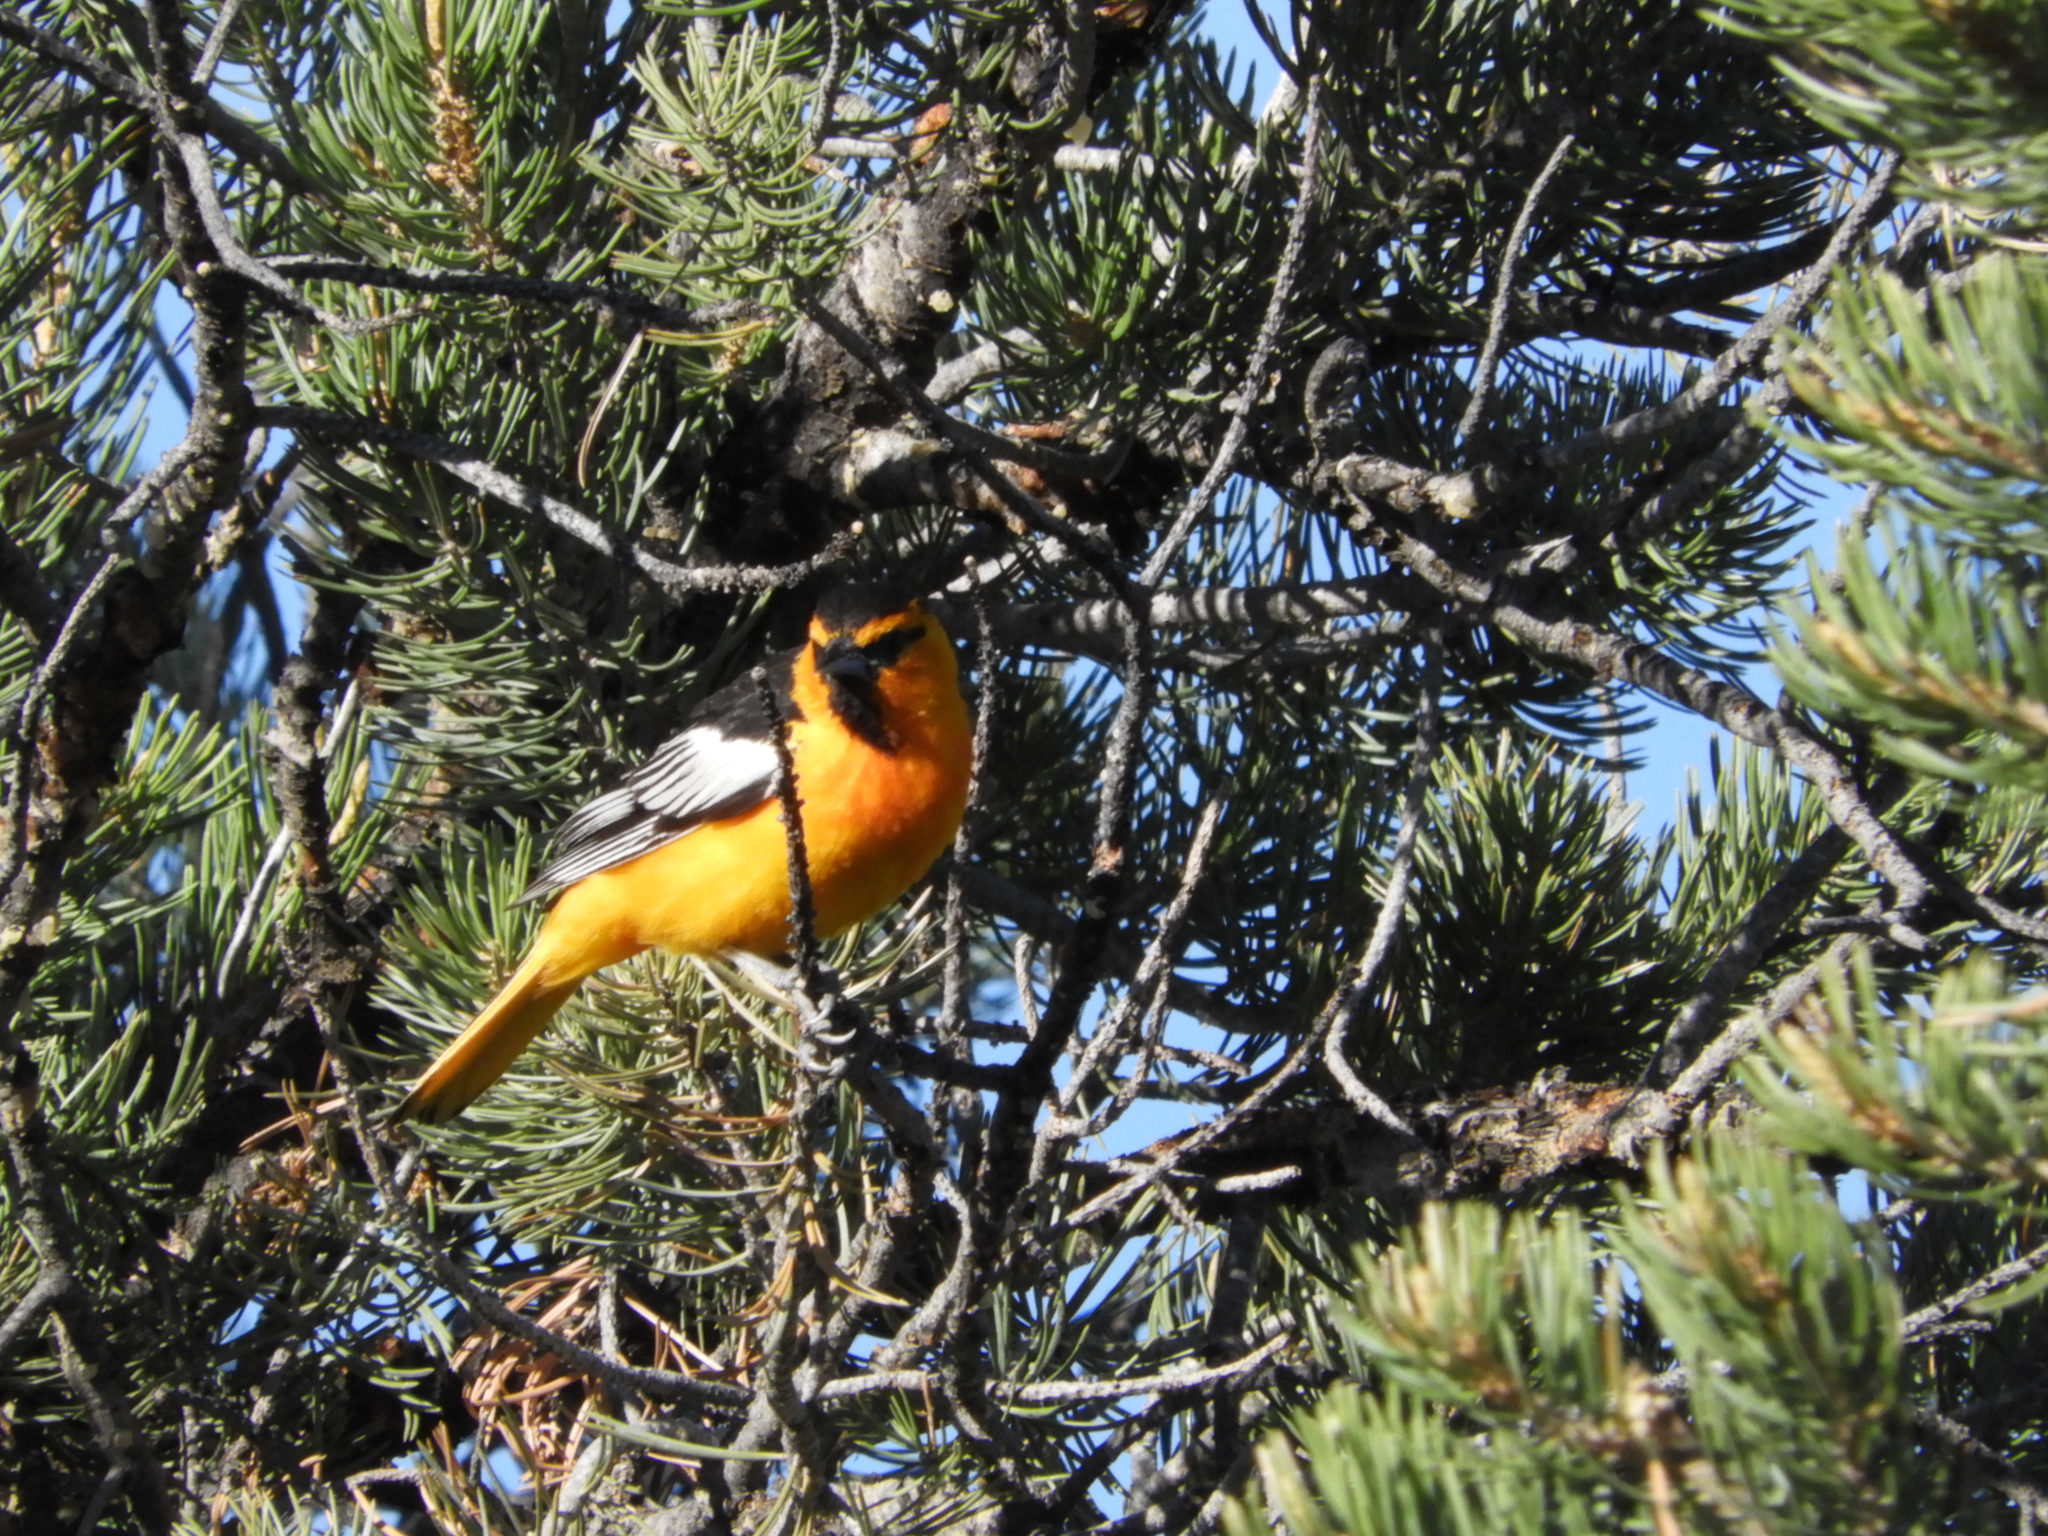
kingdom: Animalia
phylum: Chordata
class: Aves
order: Passeriformes
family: Icteridae
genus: Icterus
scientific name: Icterus bullockii
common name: Bullock's oriole
